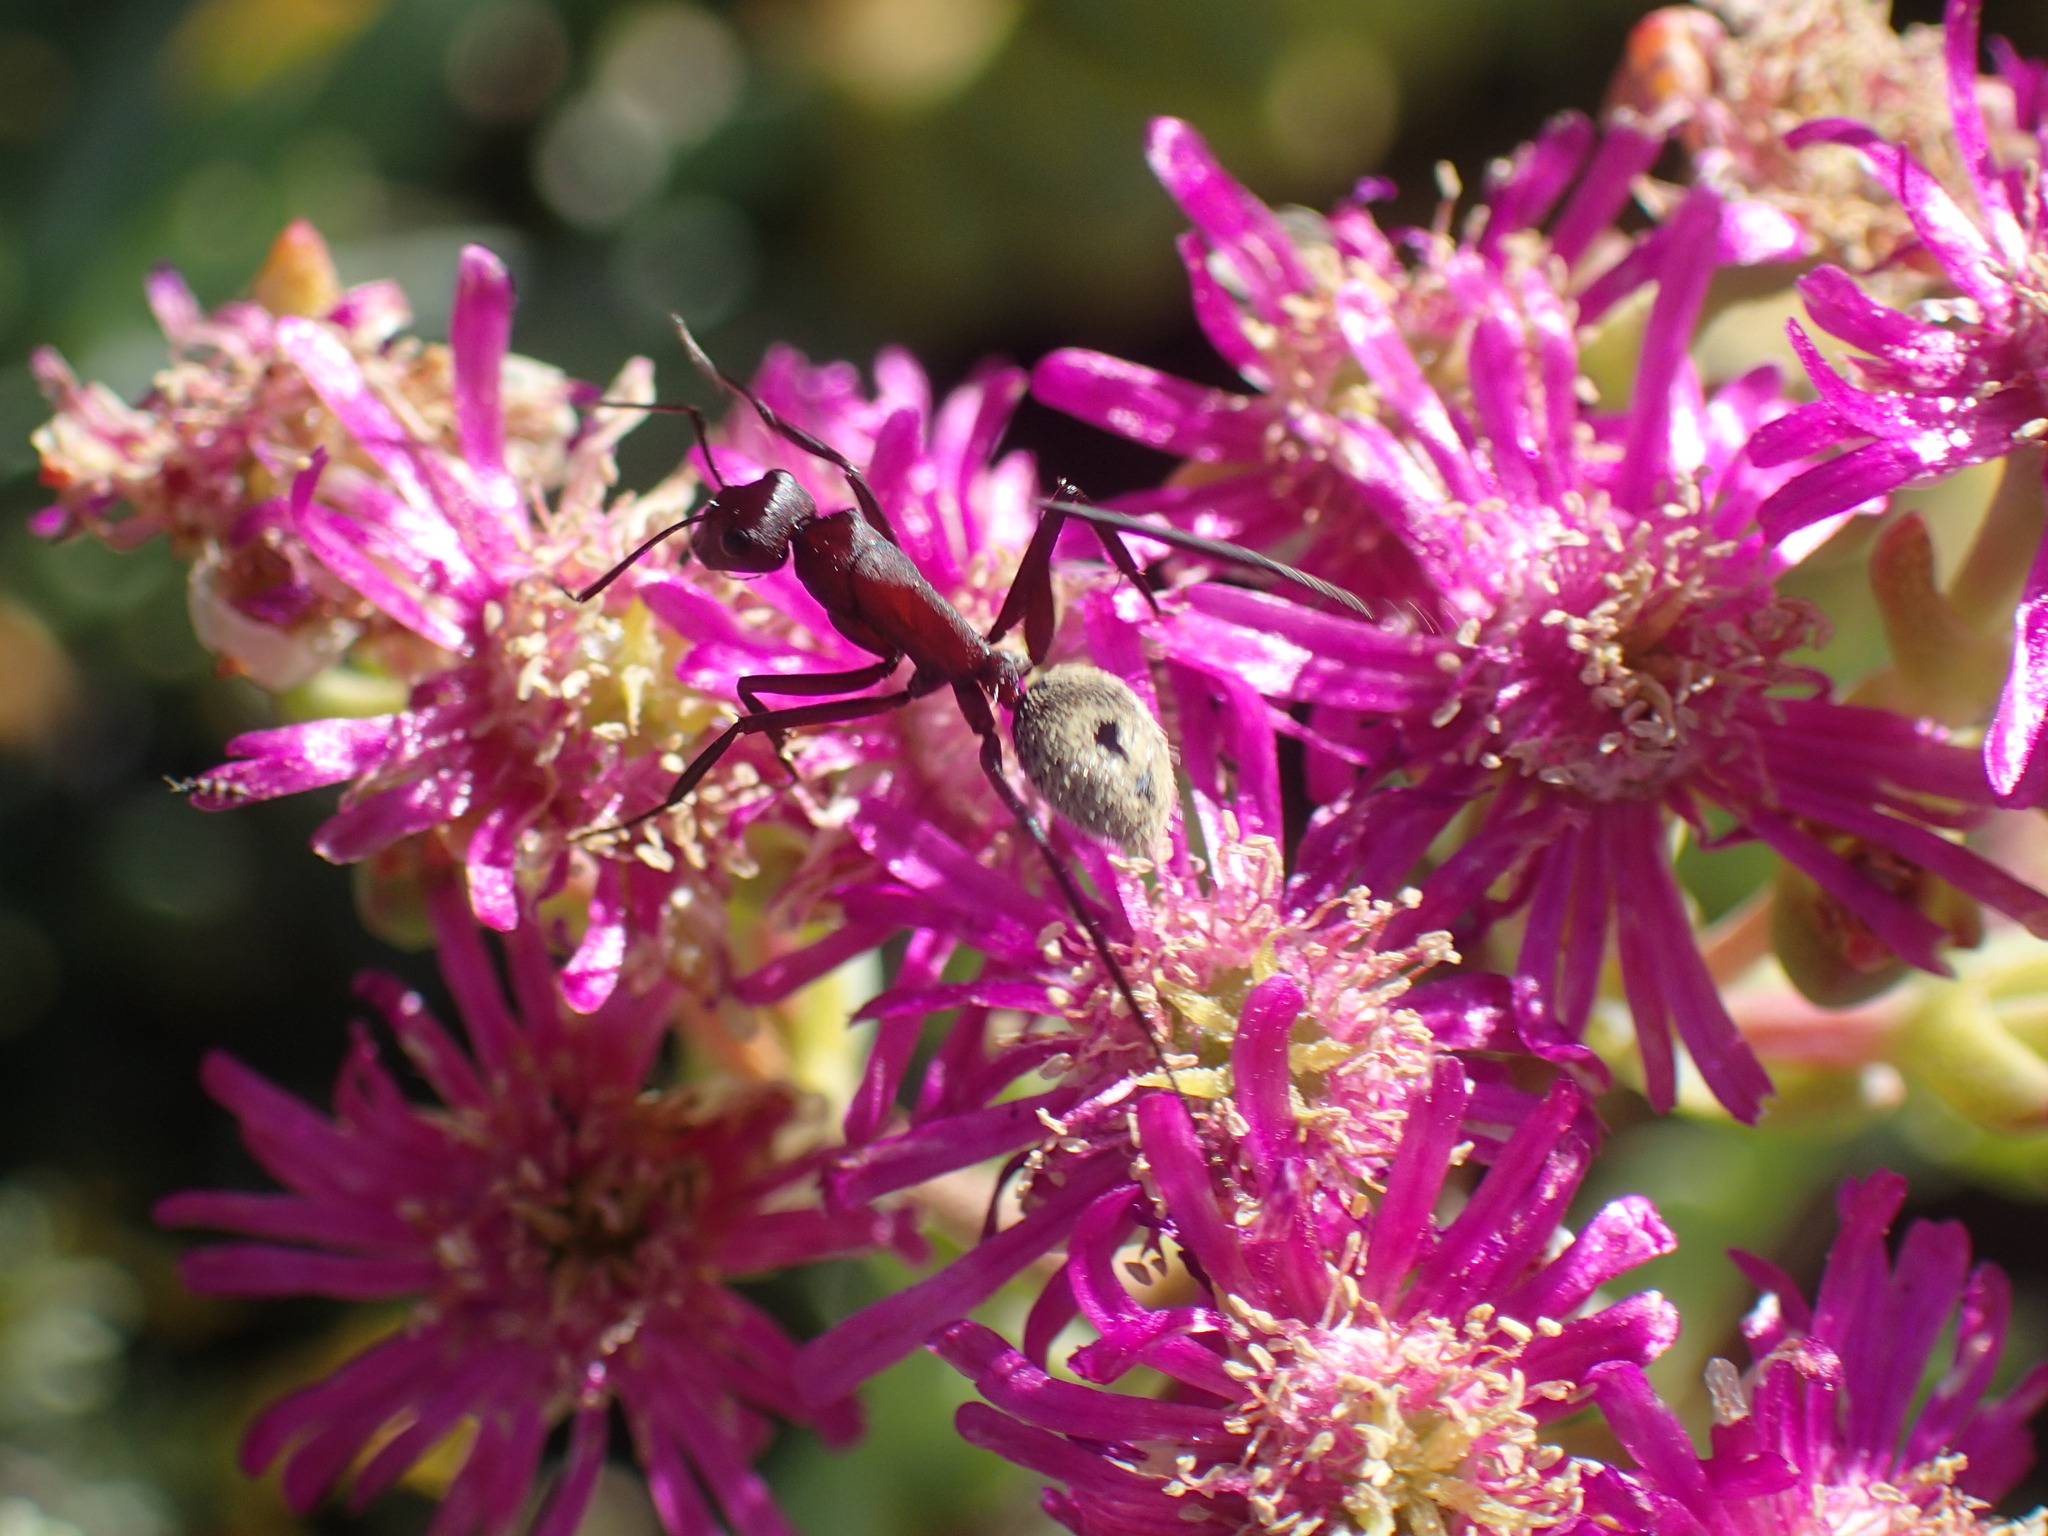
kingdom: Animalia
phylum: Arthropoda
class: Insecta
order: Hymenoptera
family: Formicidae
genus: Camponotus
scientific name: Camponotus storeatus
